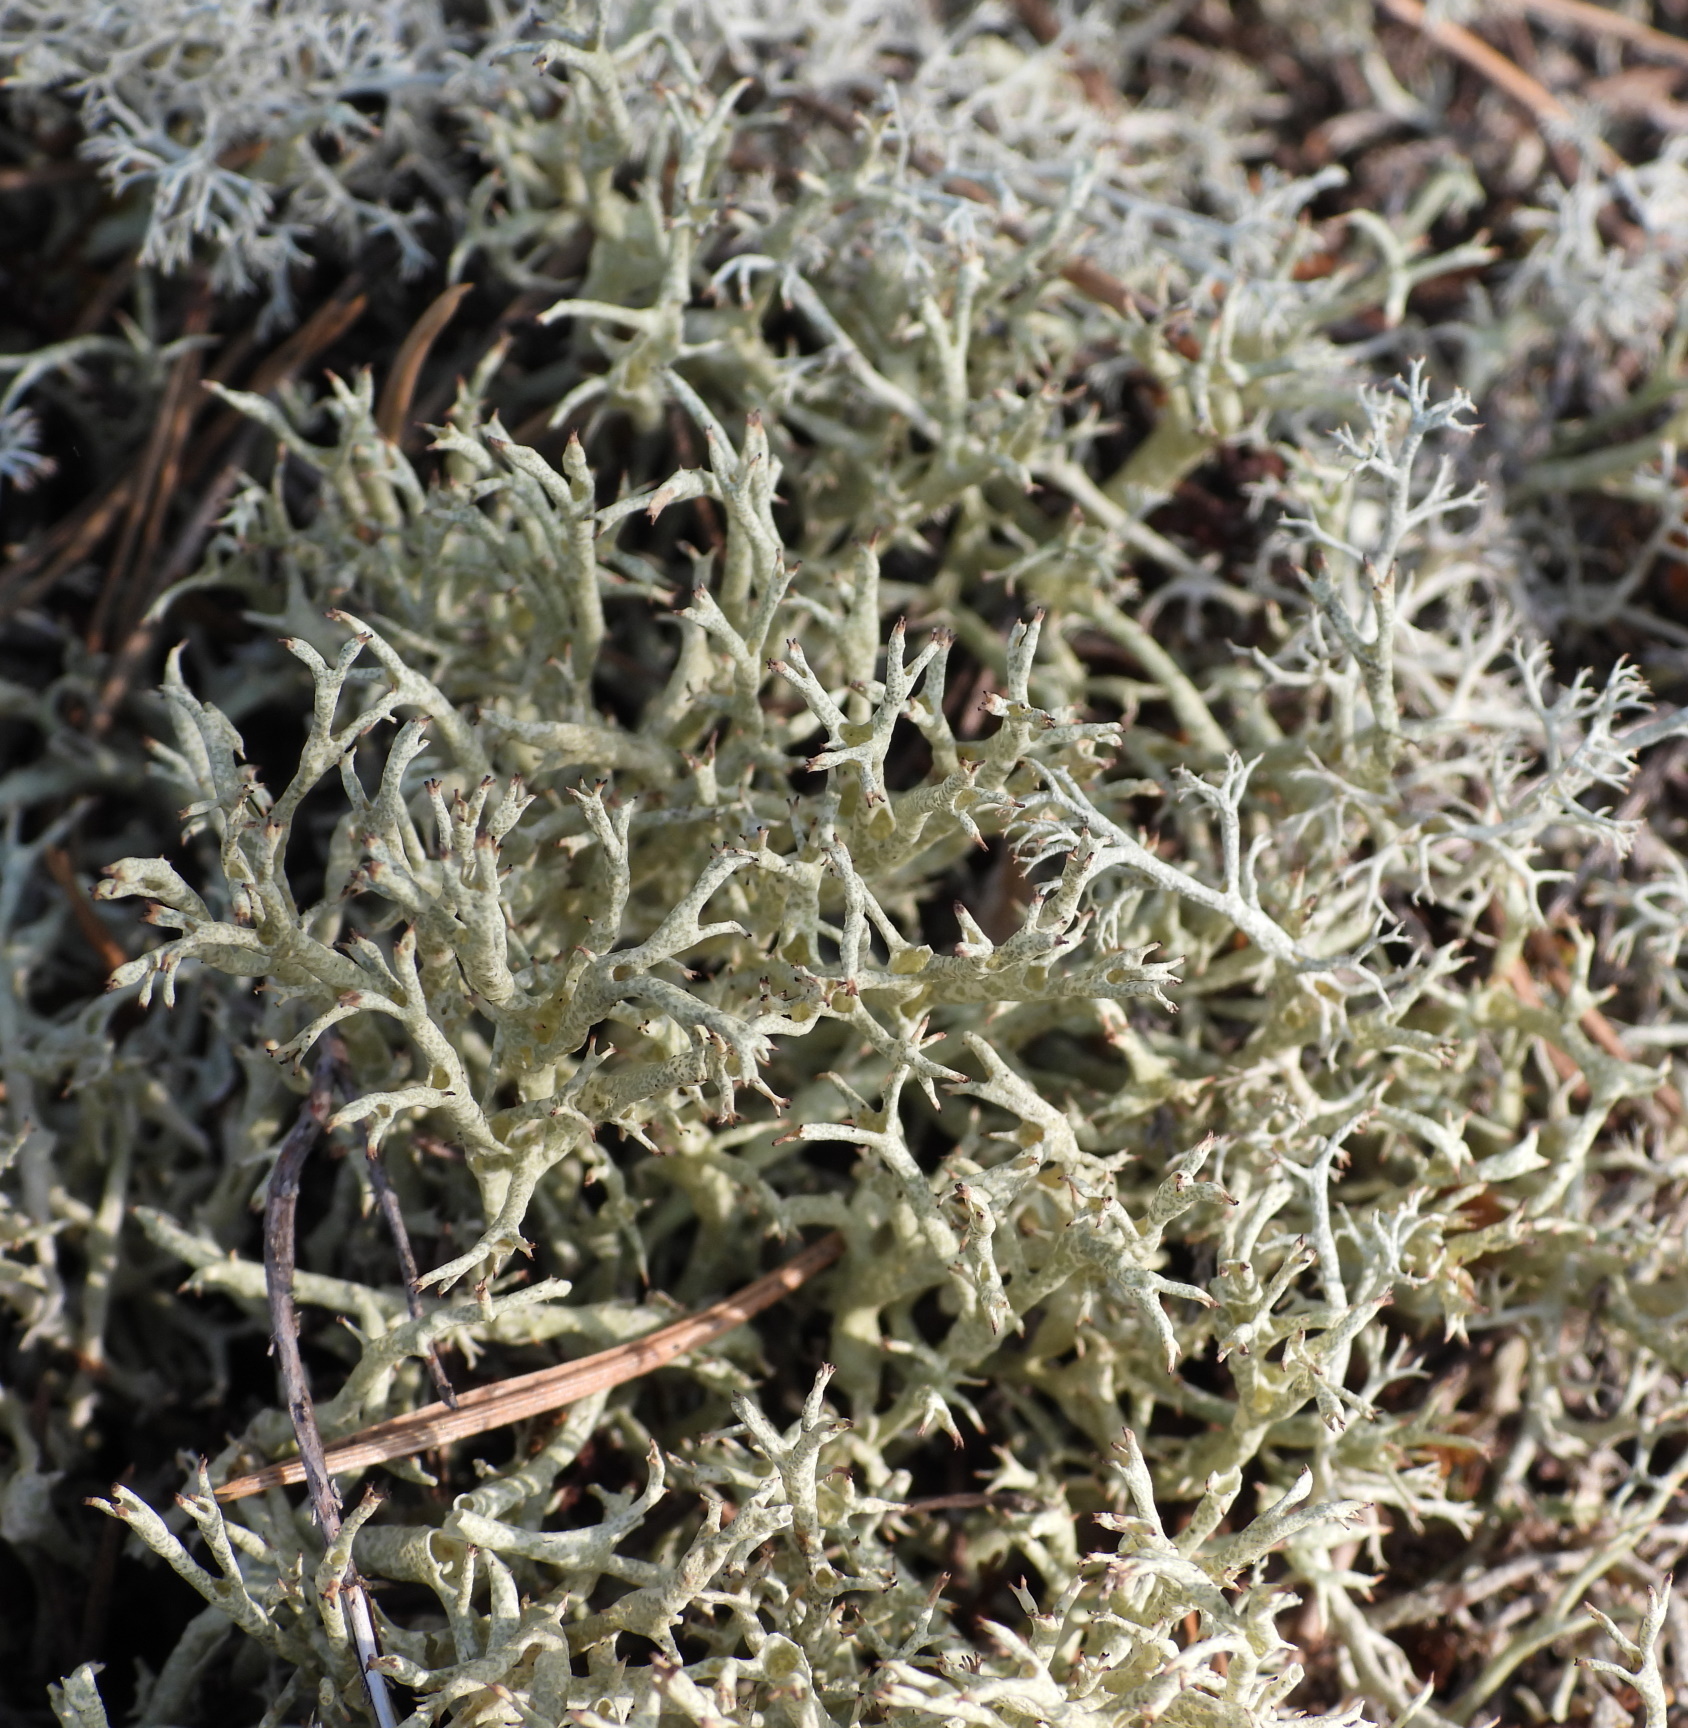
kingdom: Fungi
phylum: Ascomycota
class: Lecanoromycetes
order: Lecanorales
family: Cladoniaceae
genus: Cladonia
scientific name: Cladonia uncialis
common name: Thorn lichen
